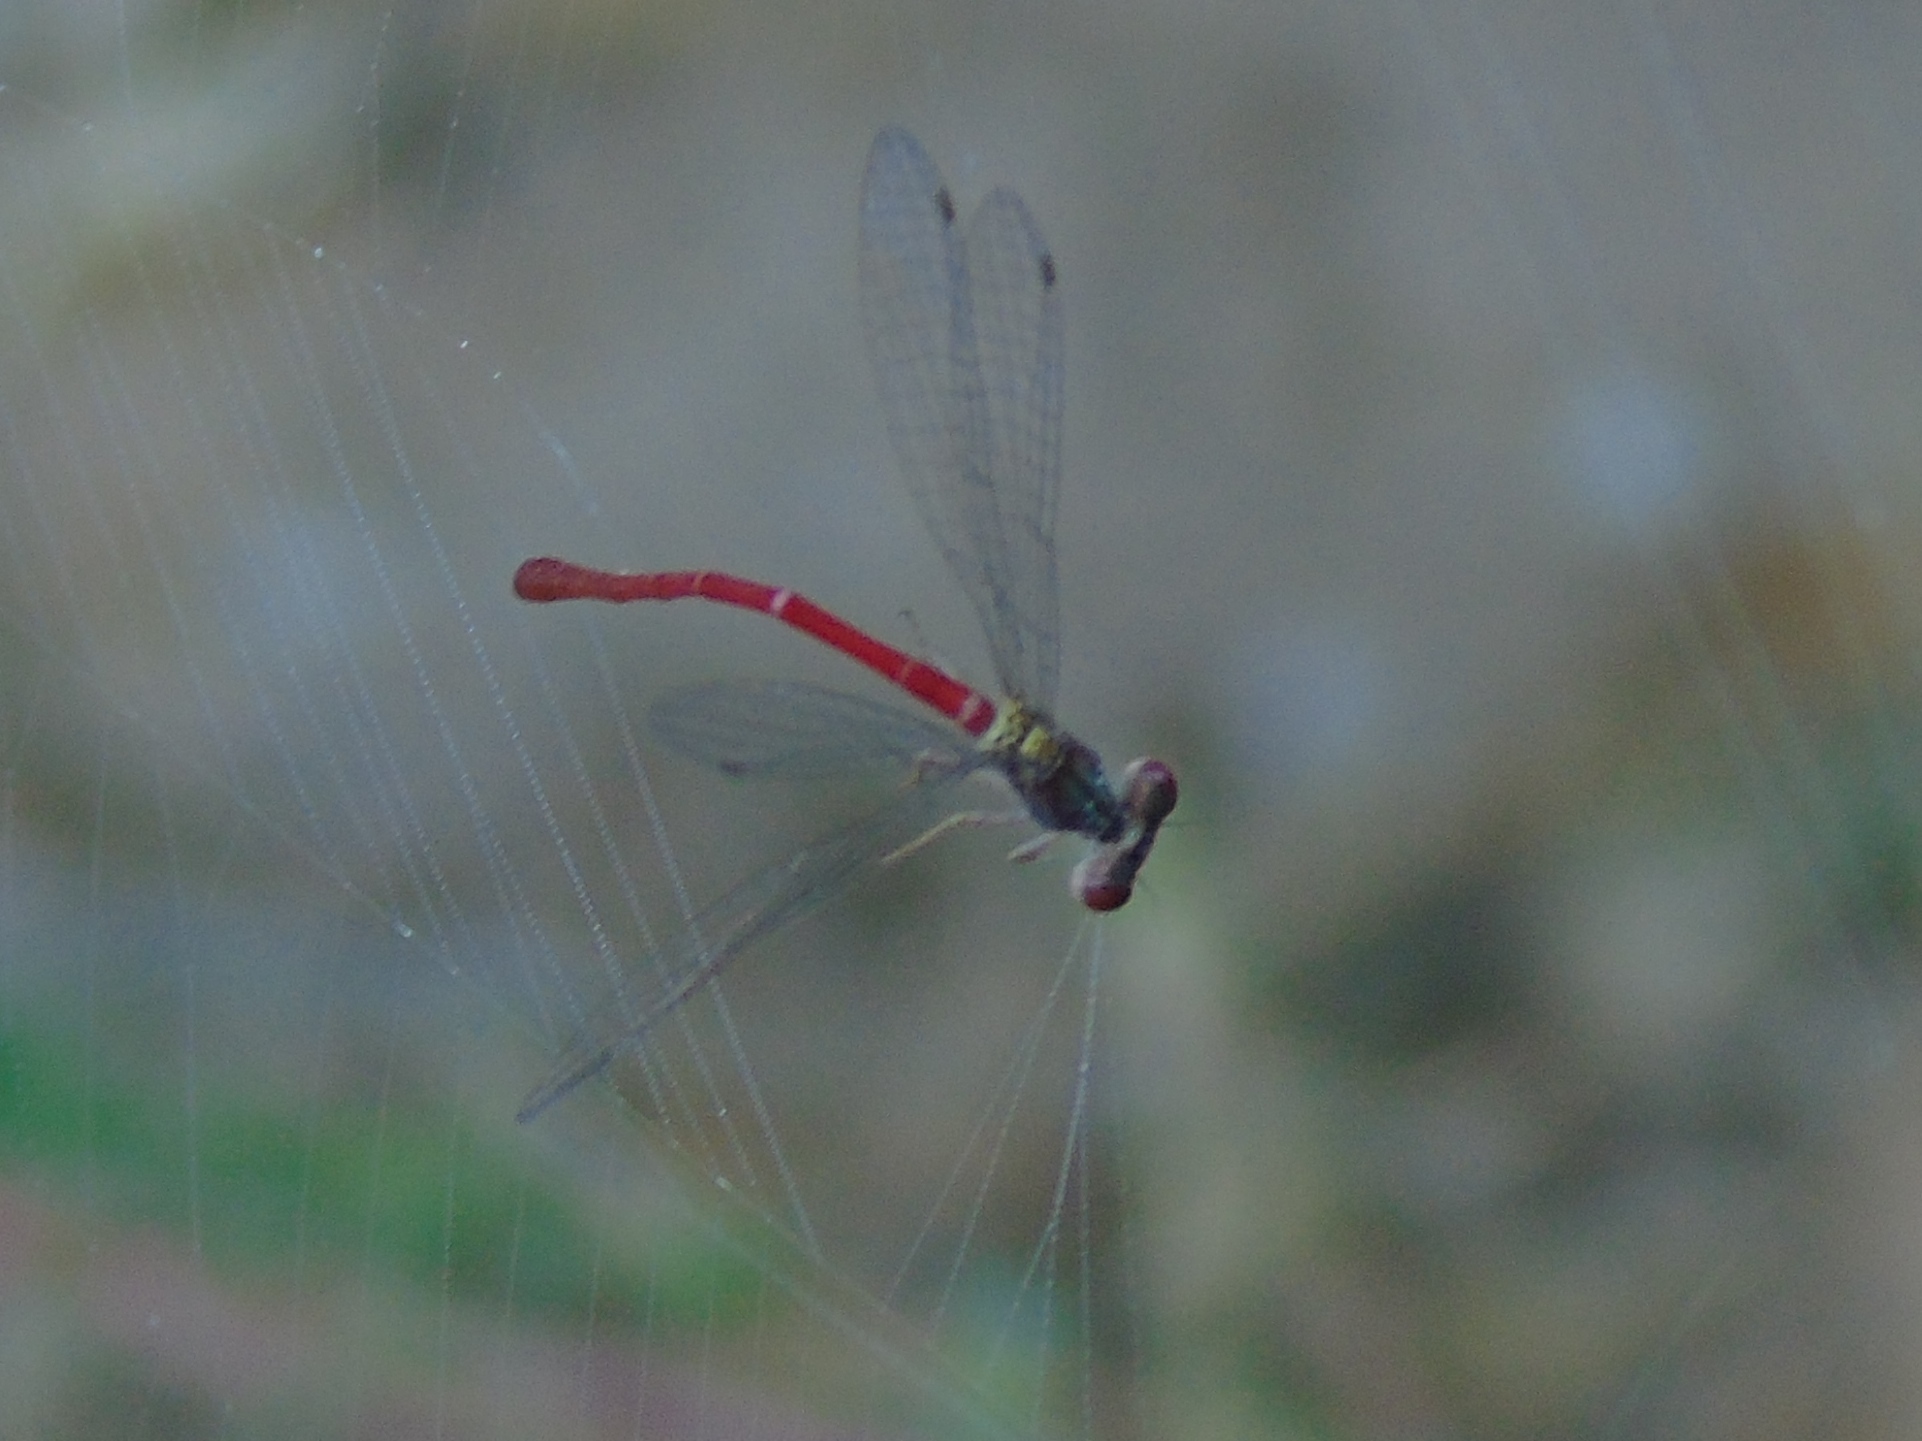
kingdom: Animalia
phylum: Arthropoda
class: Insecta
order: Odonata
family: Coenagrionidae
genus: Telebasis
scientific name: Telebasis
